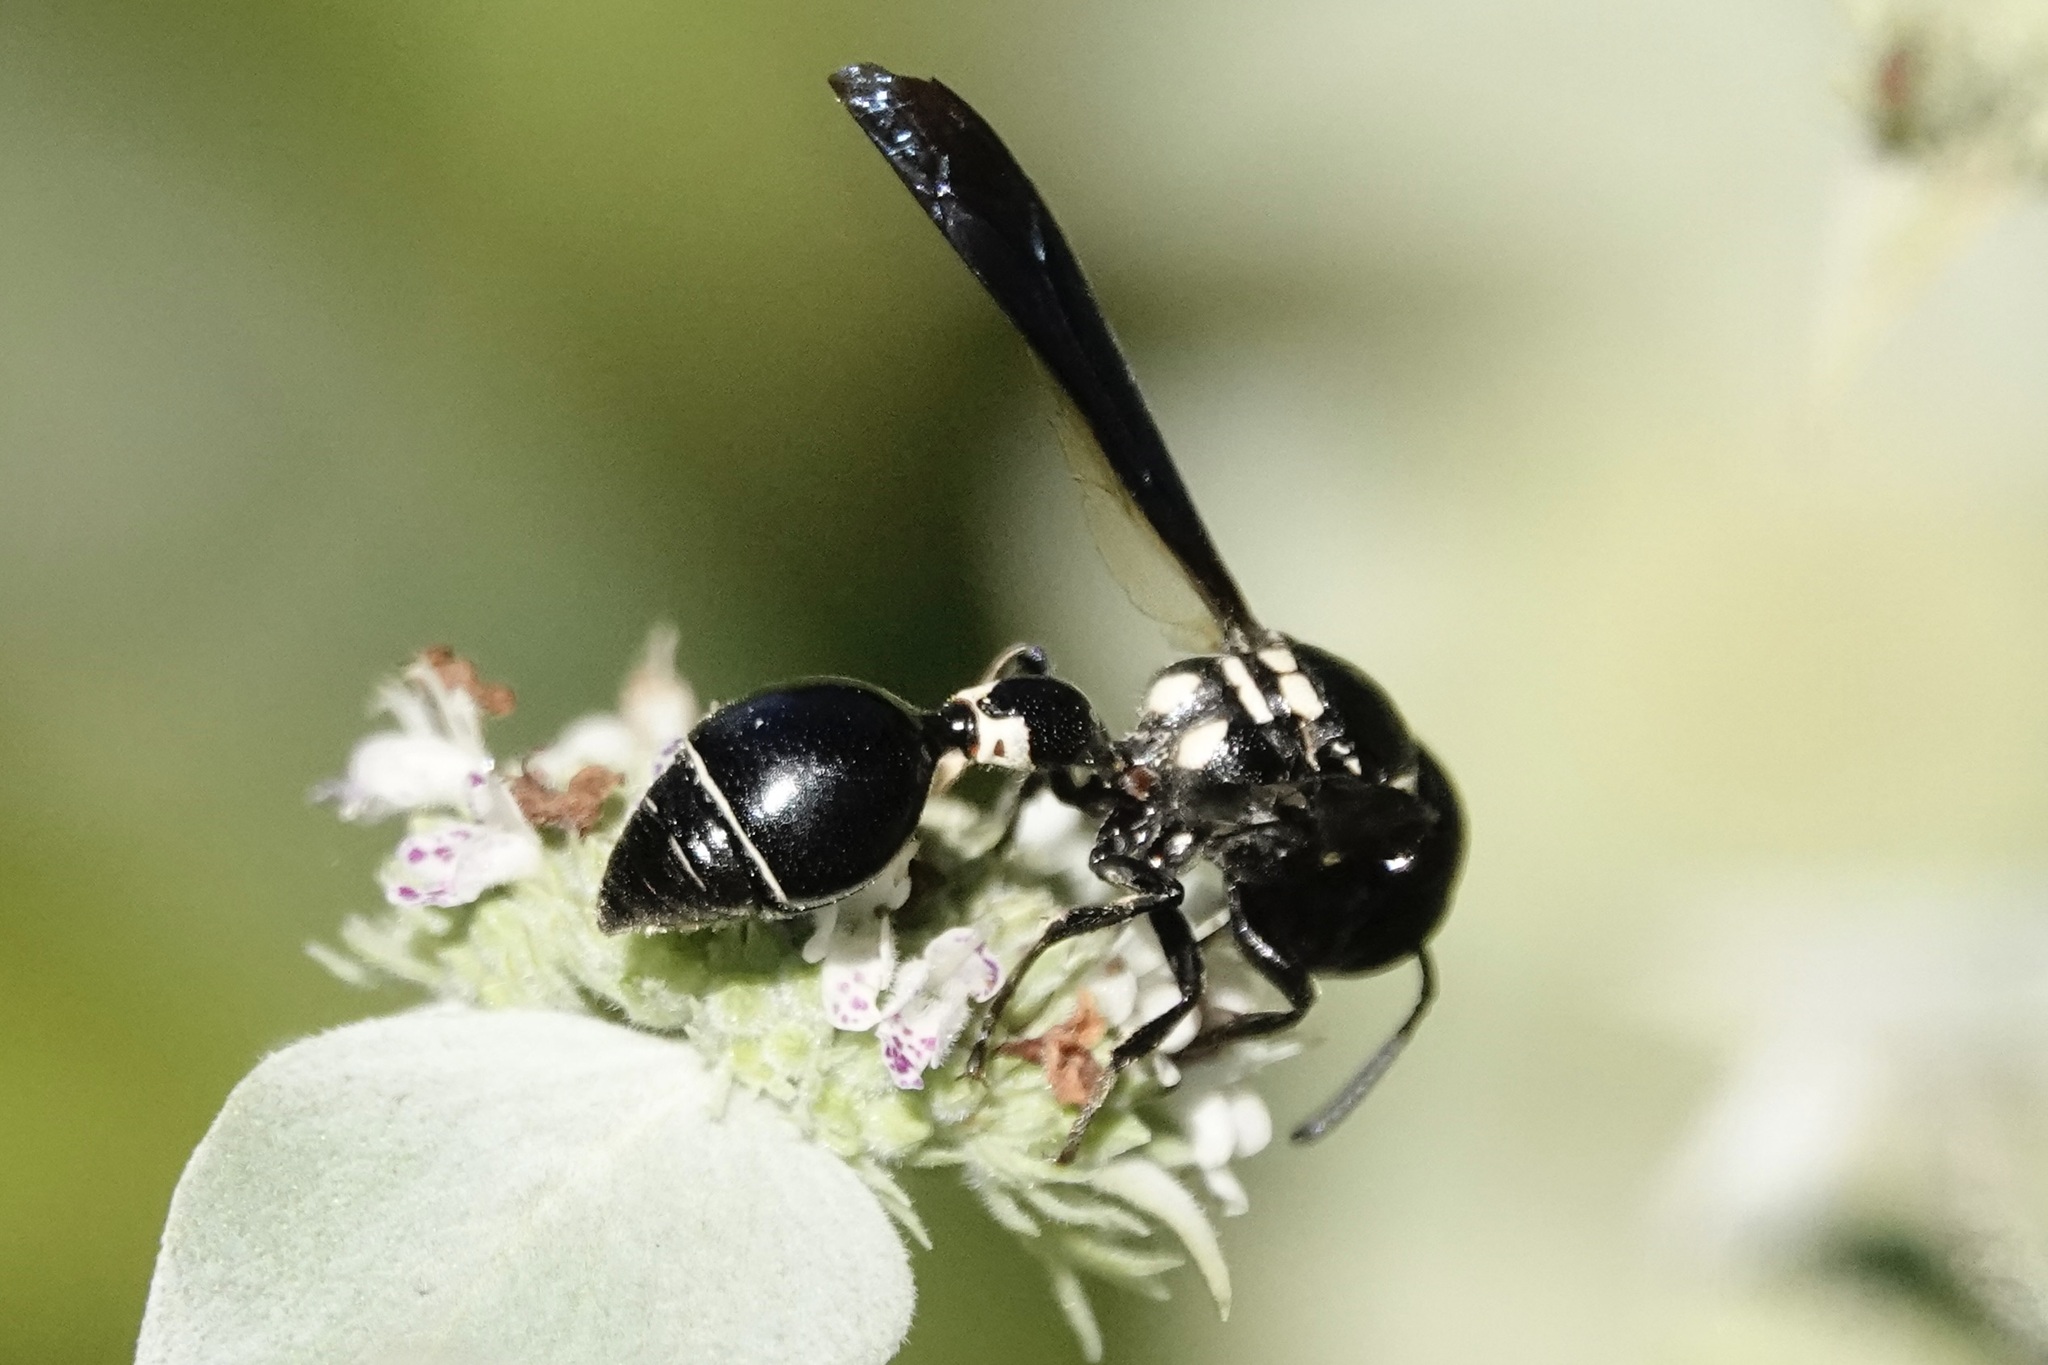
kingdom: Animalia
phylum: Arthropoda
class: Insecta
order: Hymenoptera
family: Eumenidae
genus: Zethus
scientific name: Zethus spinipes
